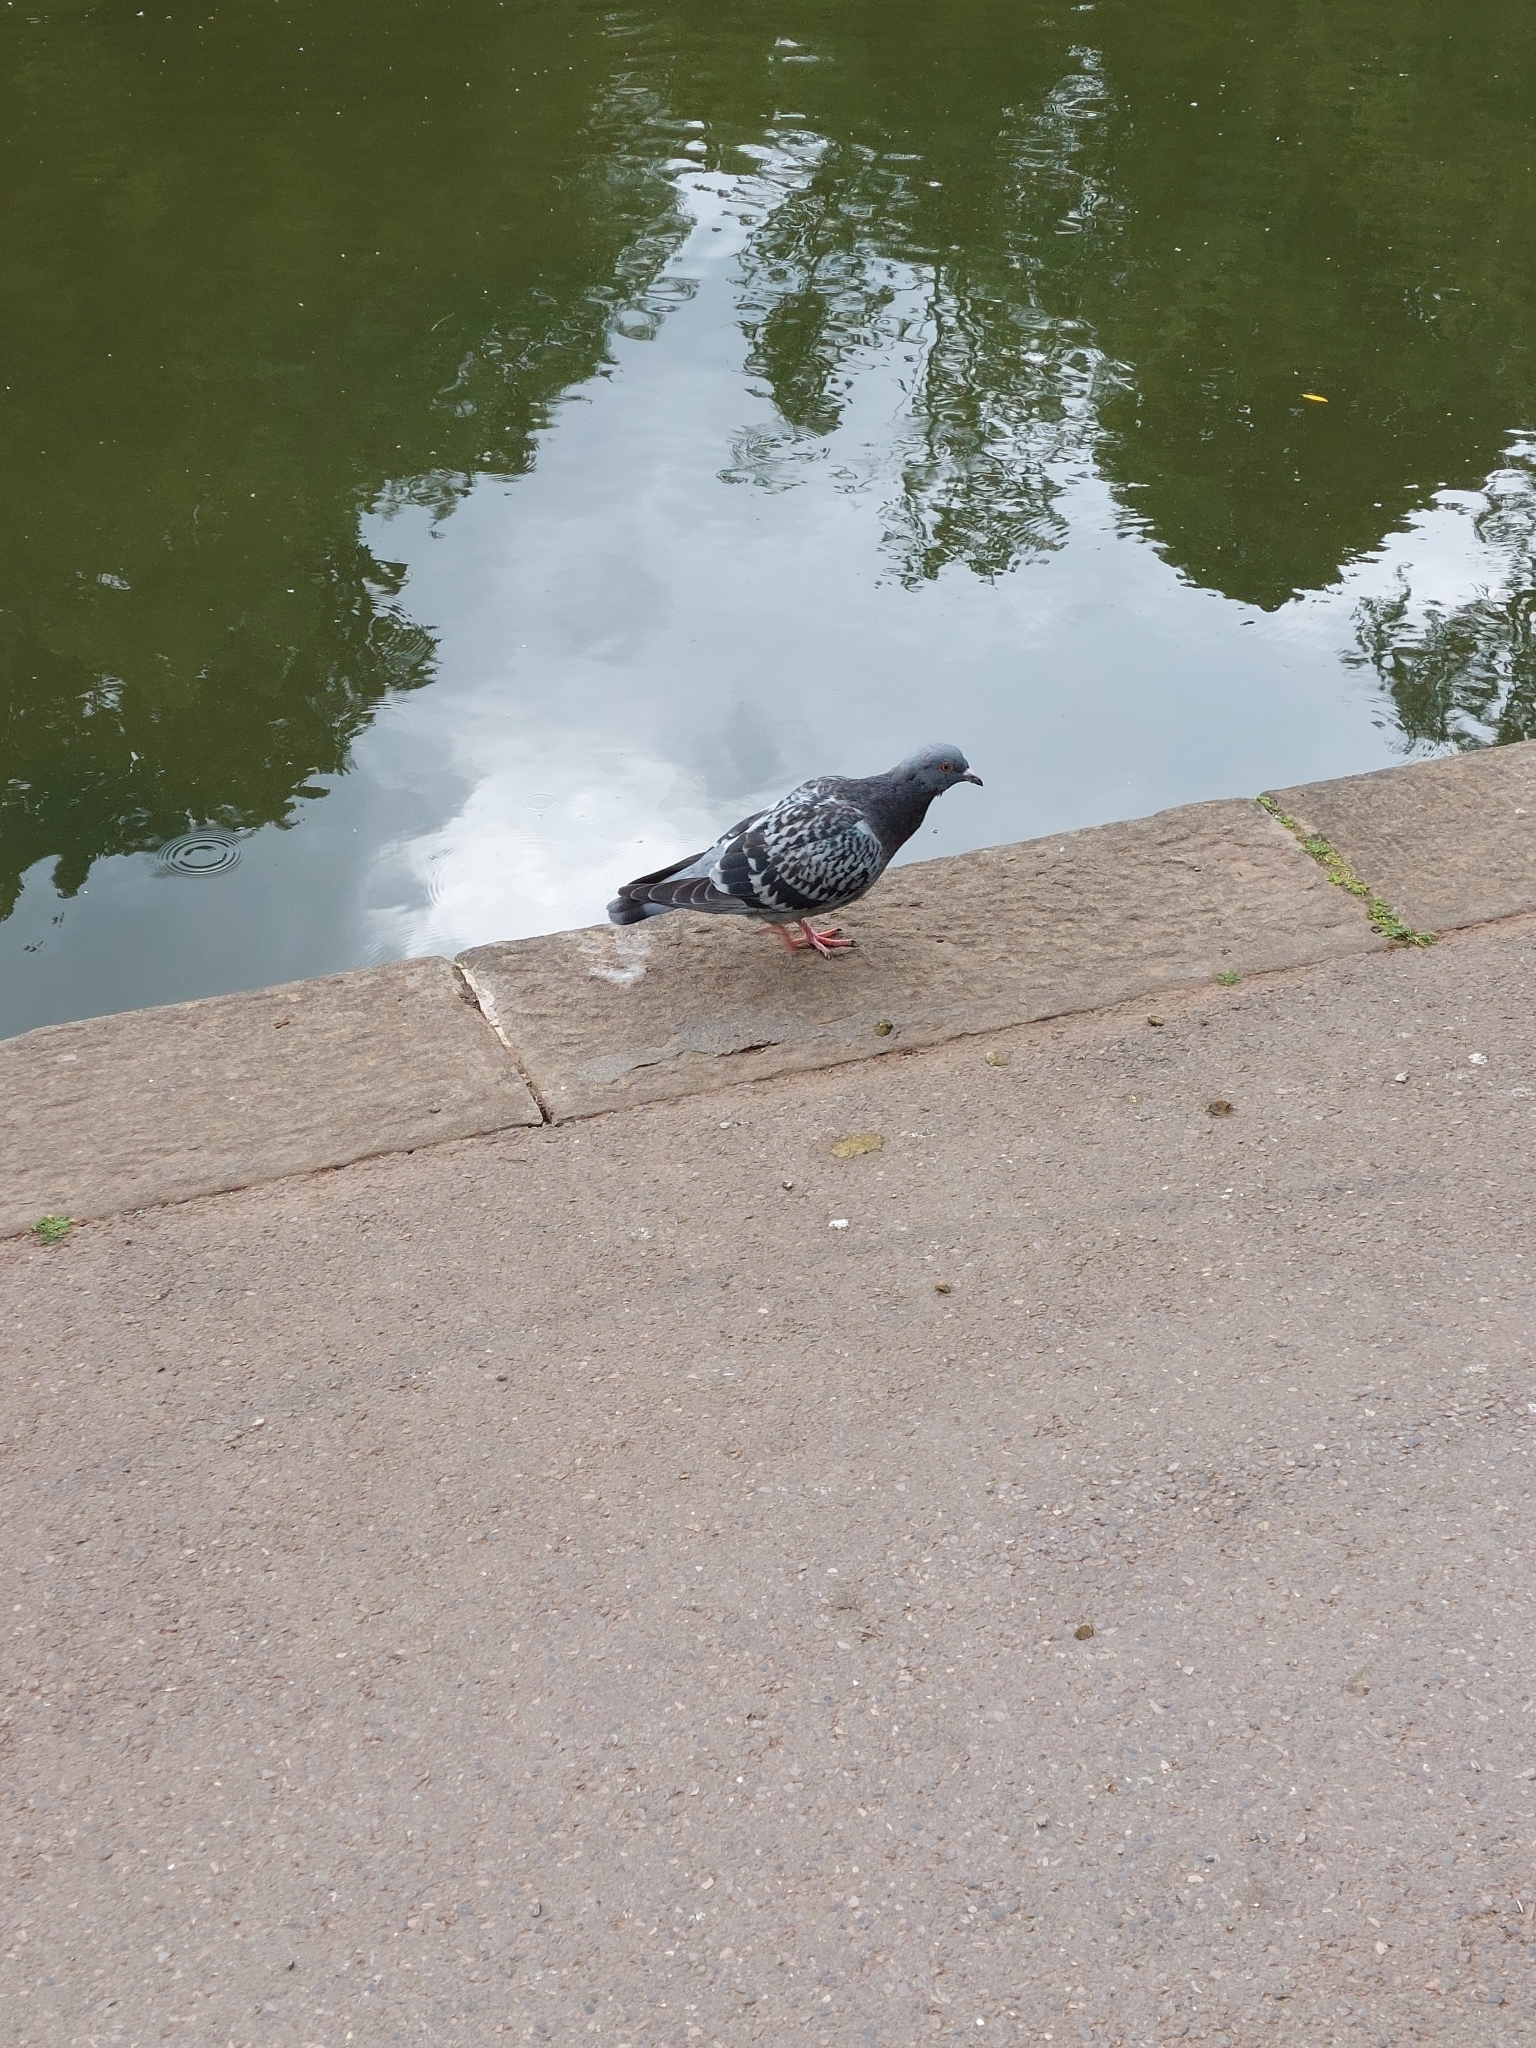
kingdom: Animalia
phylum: Chordata
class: Aves
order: Columbiformes
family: Columbidae
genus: Columba
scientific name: Columba livia
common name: Rock pigeon
